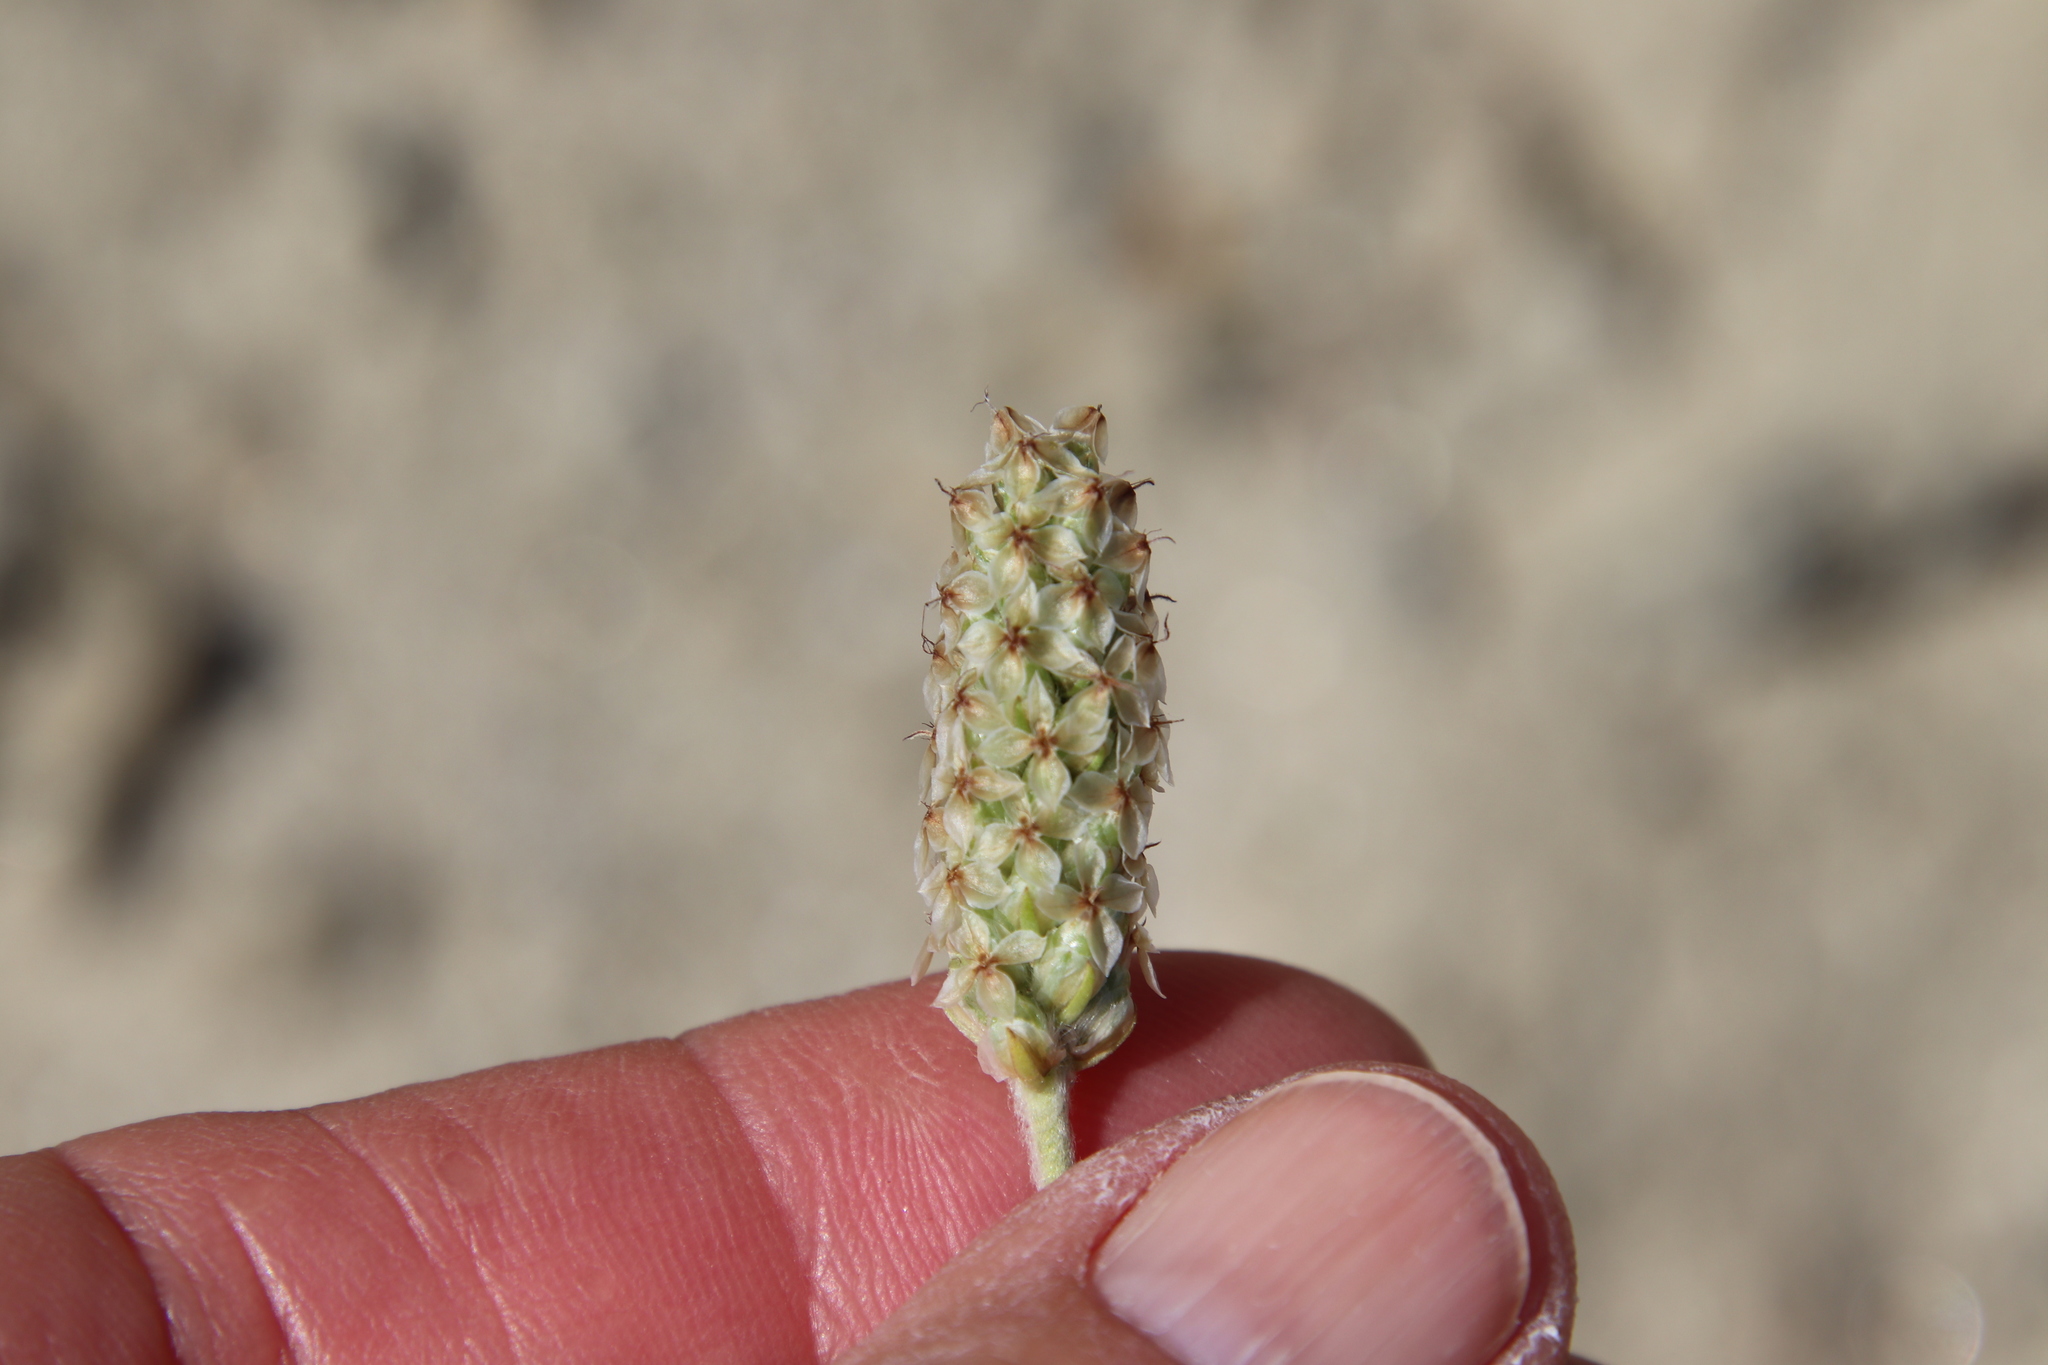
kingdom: Plantae
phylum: Tracheophyta
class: Magnoliopsida
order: Lamiales
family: Plantaginaceae
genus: Plantago
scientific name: Plantago ovata
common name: Blond plantain
